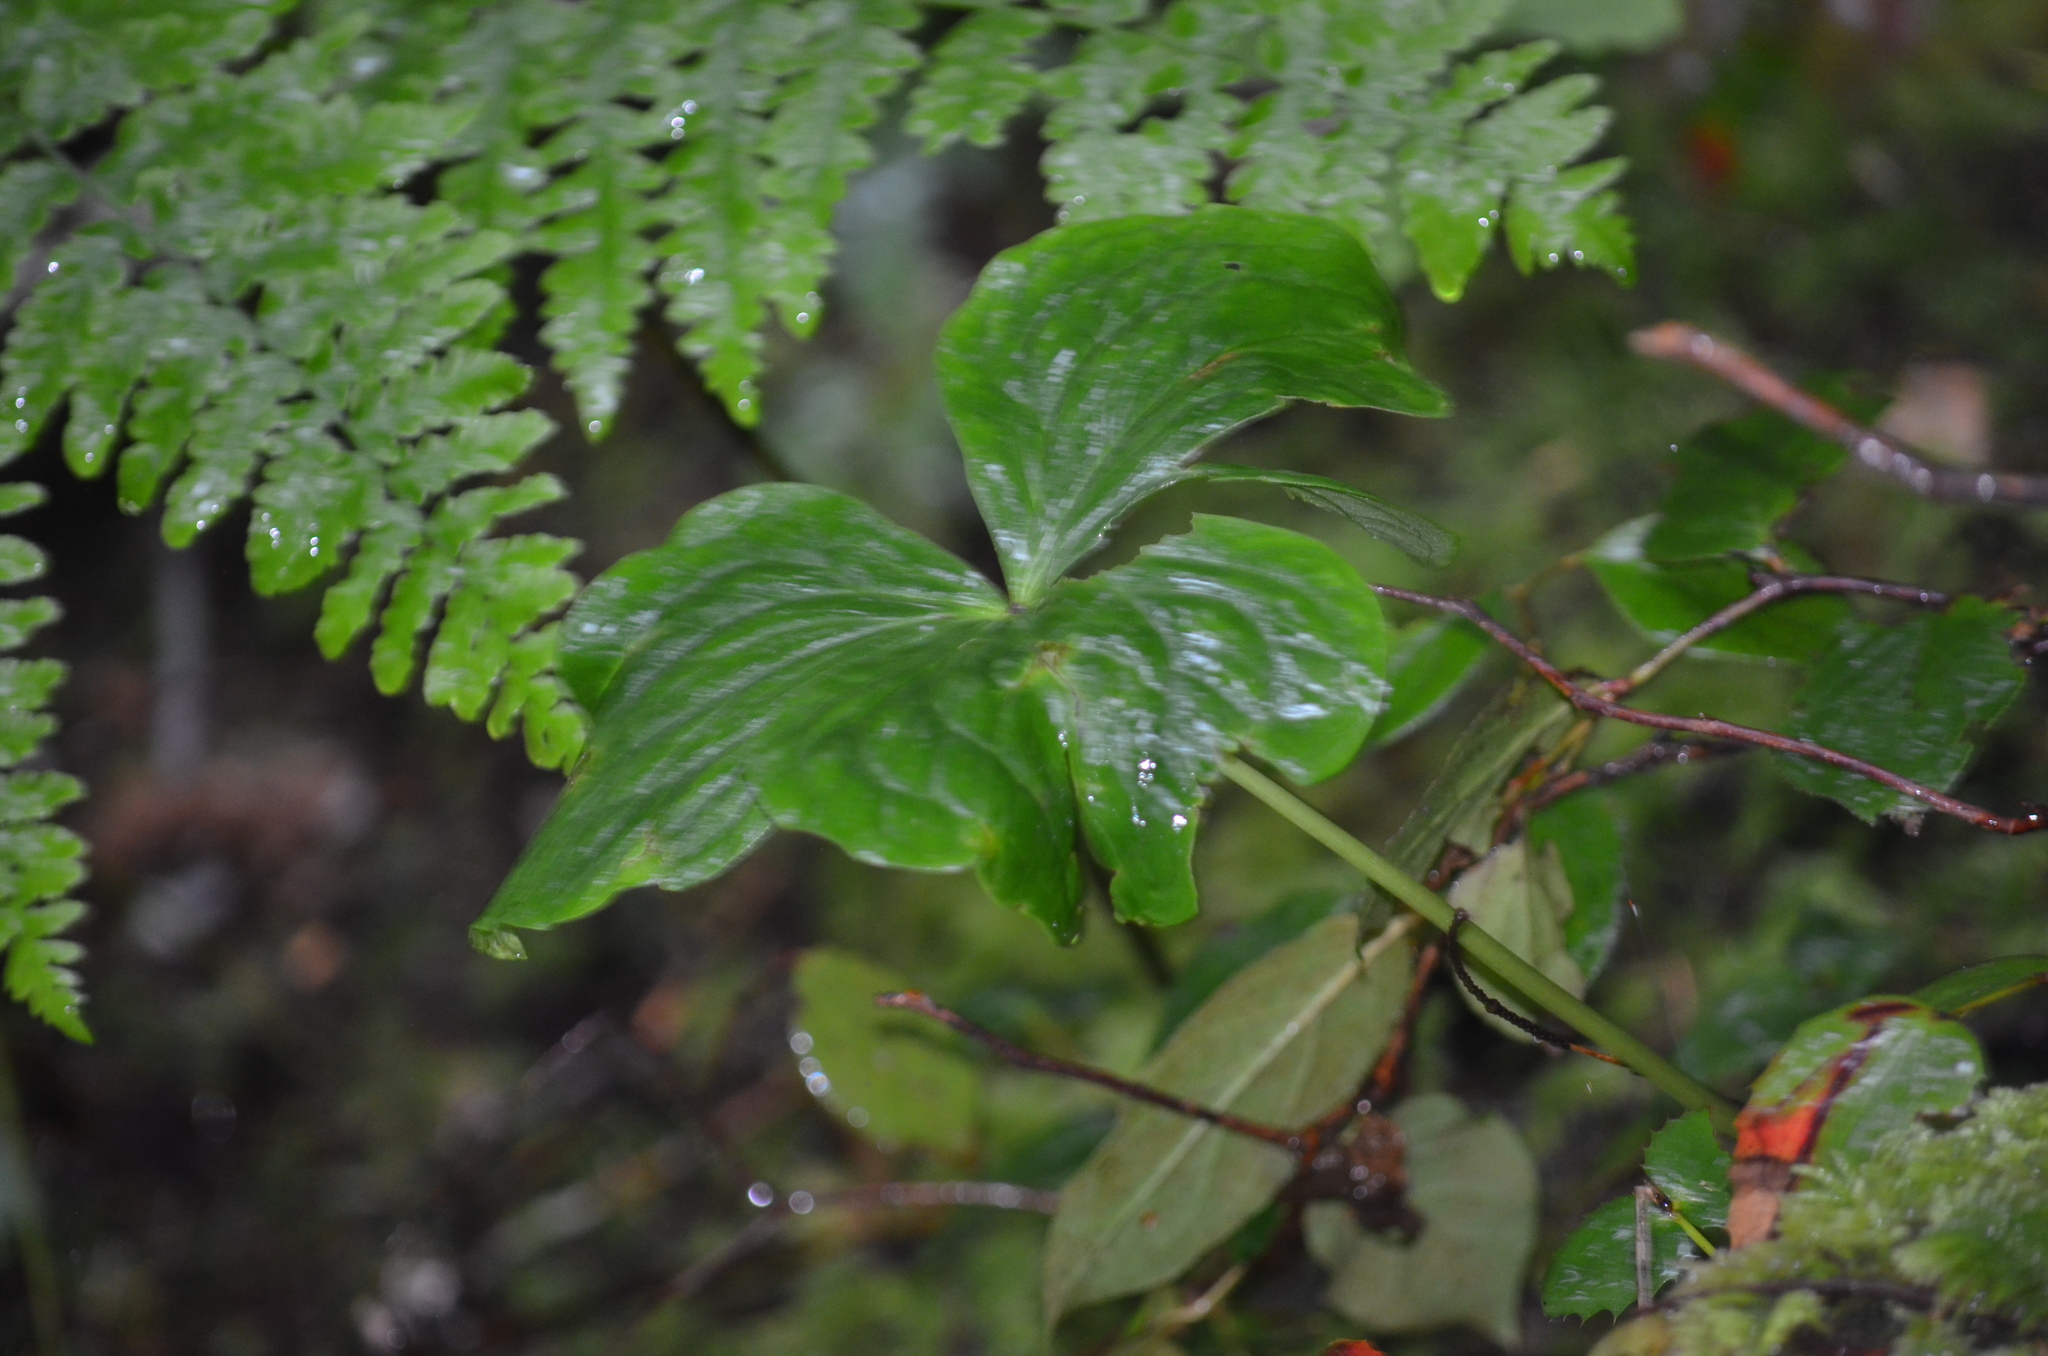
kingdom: Plantae
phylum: Tracheophyta
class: Liliopsida
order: Liliales
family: Melanthiaceae
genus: Trillium
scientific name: Trillium ovatum
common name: Pacific trillium
